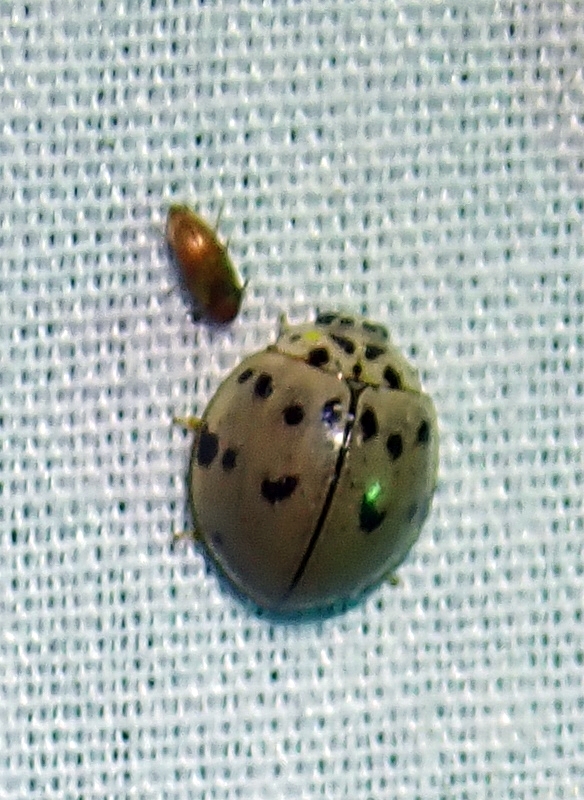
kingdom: Animalia
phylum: Arthropoda
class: Insecta
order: Coleoptera
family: Coccinellidae
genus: Olla
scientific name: Olla v-nigrum
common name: Ashy gray lady beetle
